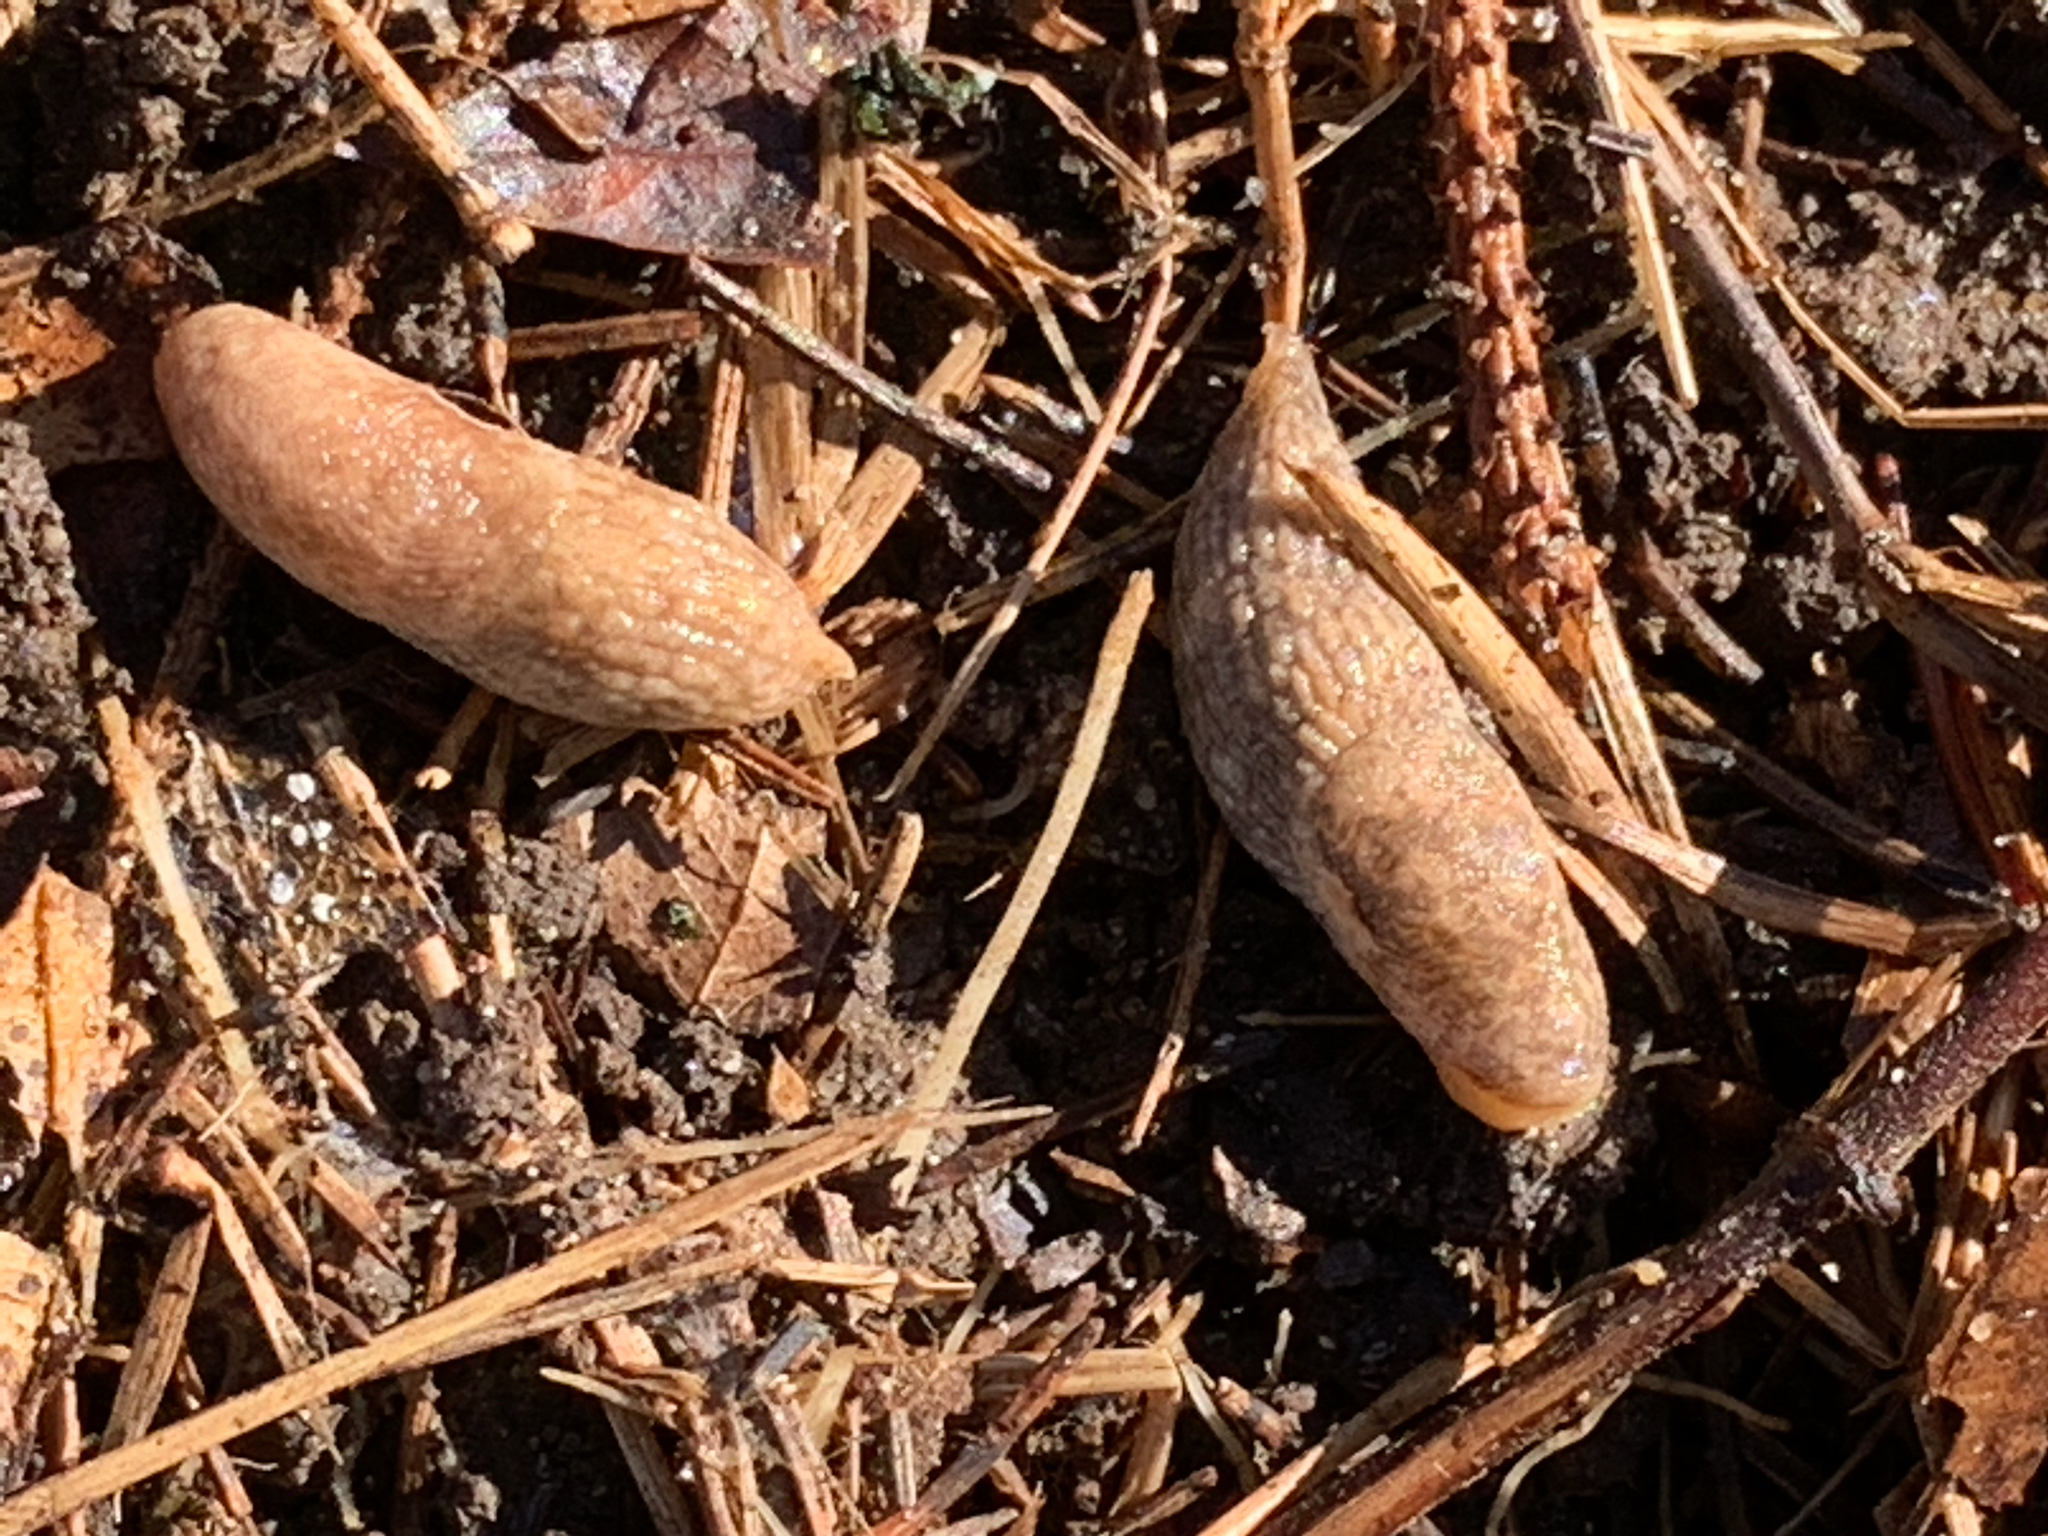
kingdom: Animalia
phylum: Mollusca
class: Gastropoda
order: Stylommatophora
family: Agriolimacidae
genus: Deroceras
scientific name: Deroceras reticulatum
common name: Gray field slug
